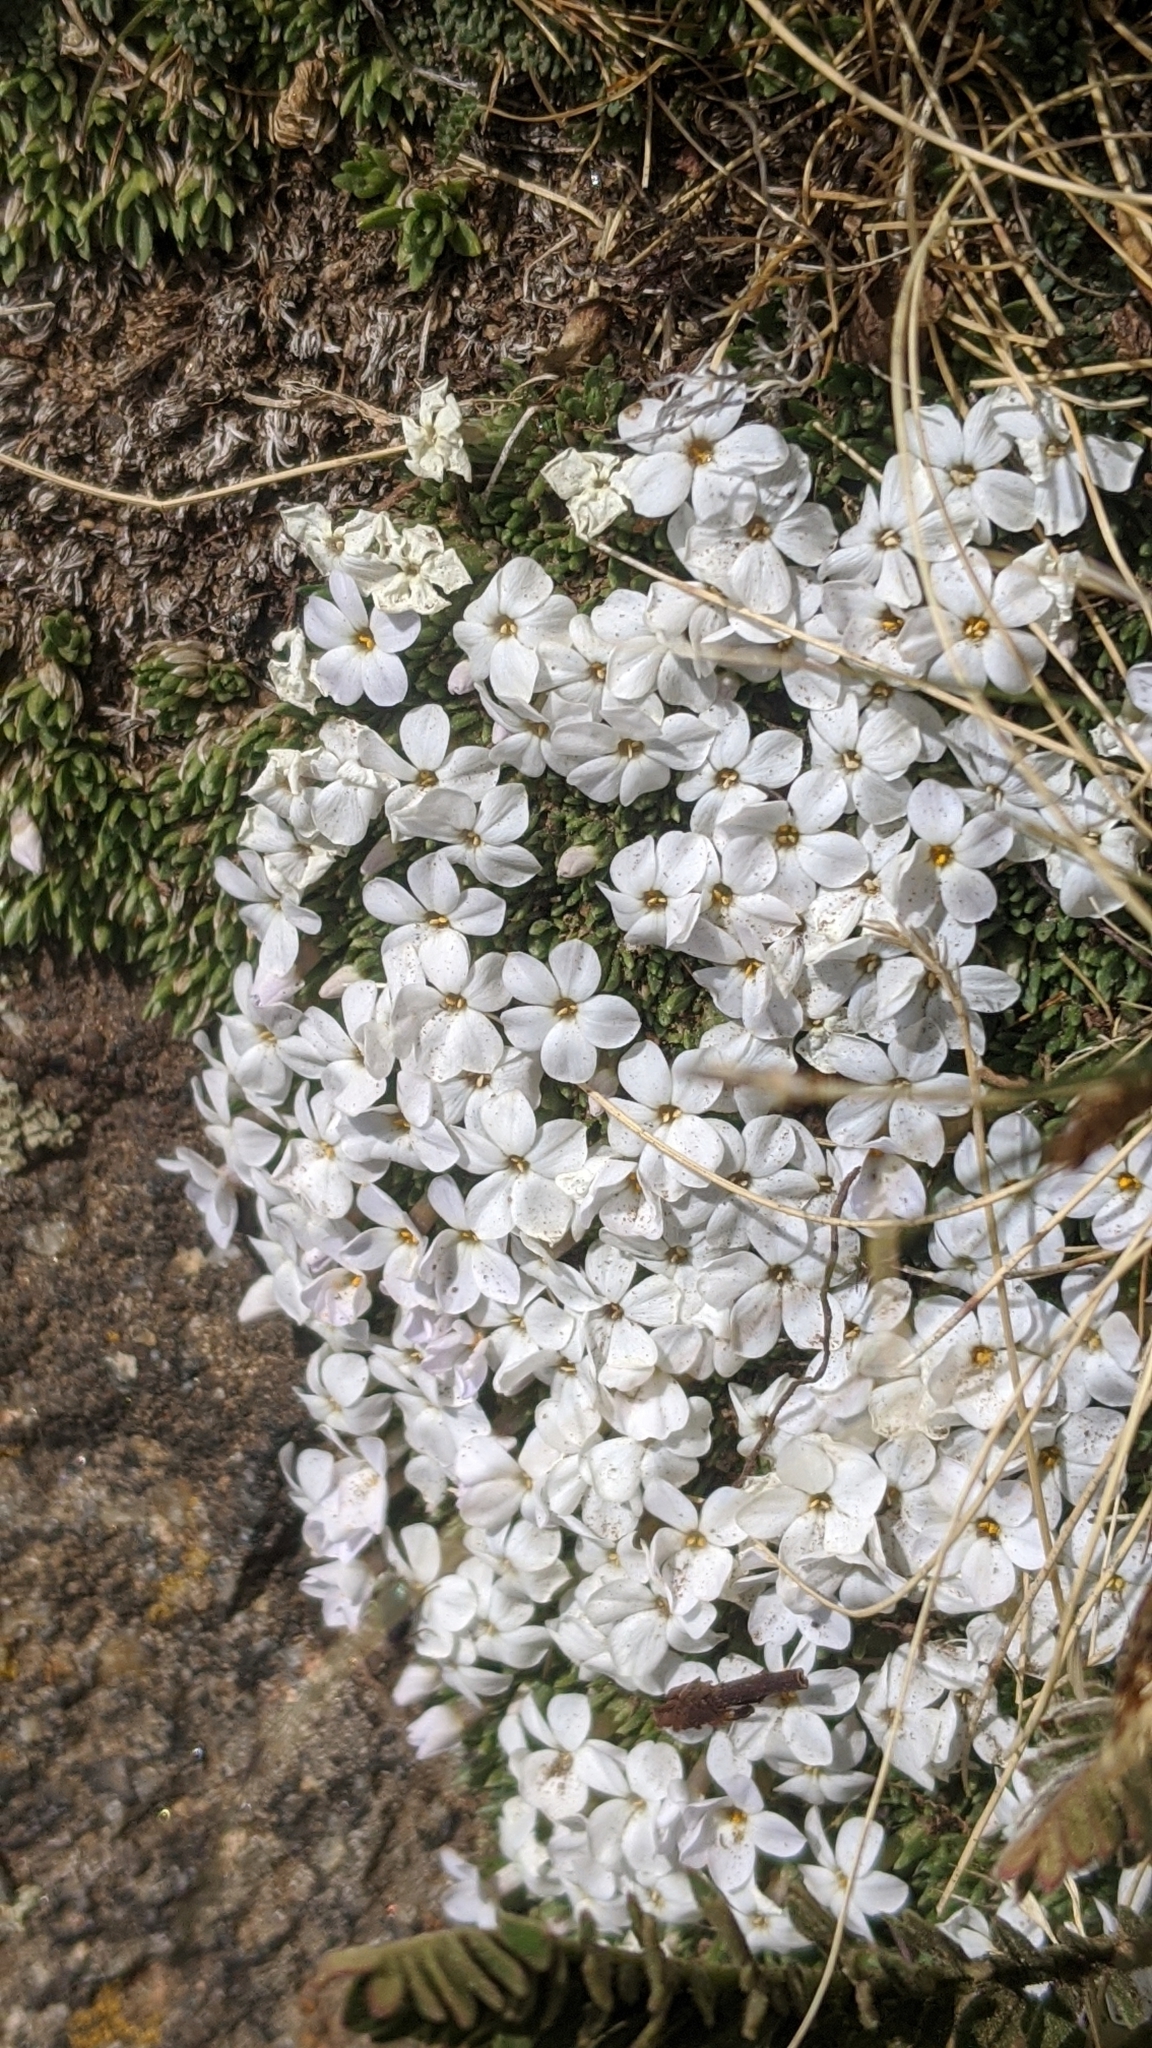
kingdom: Plantae
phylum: Tracheophyta
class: Magnoliopsida
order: Ericales
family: Polemoniaceae
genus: Phlox
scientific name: Phlox condensata
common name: Compact phlox
